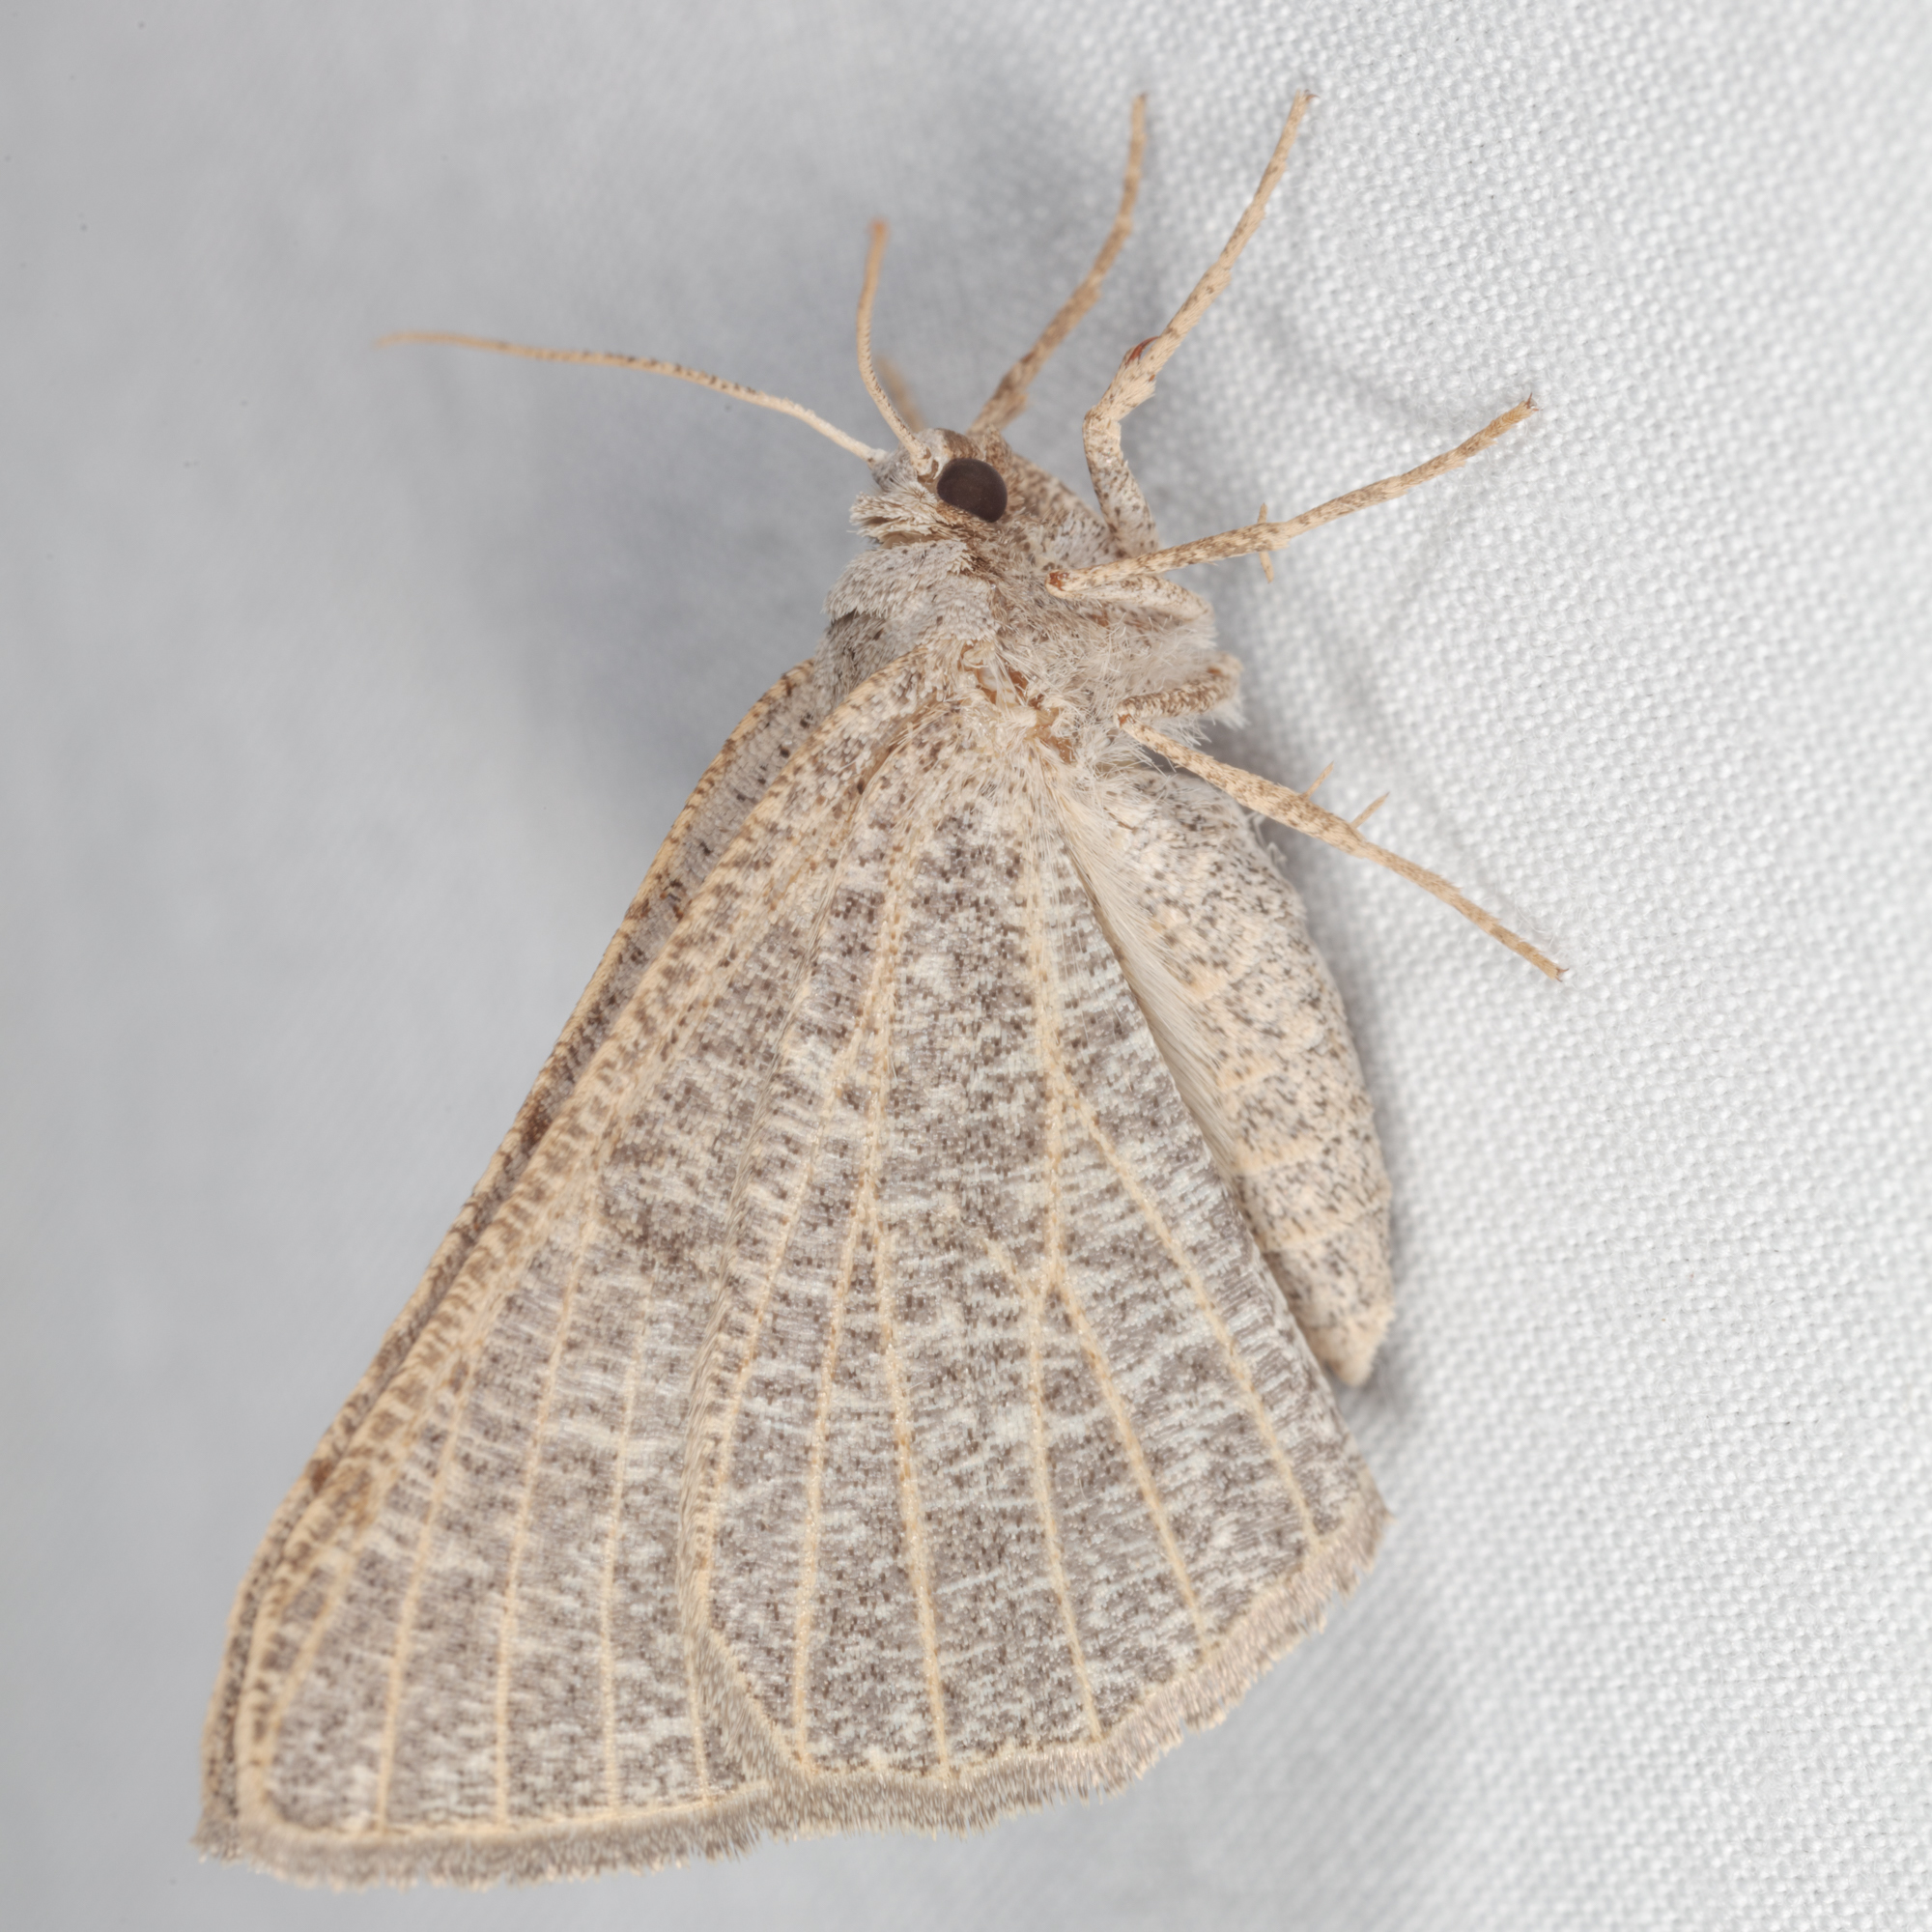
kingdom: Animalia
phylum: Arthropoda
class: Insecta
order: Lepidoptera
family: Geometridae
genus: Isturgia
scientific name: Isturgia dislocaria
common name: Pale-viened enconista
